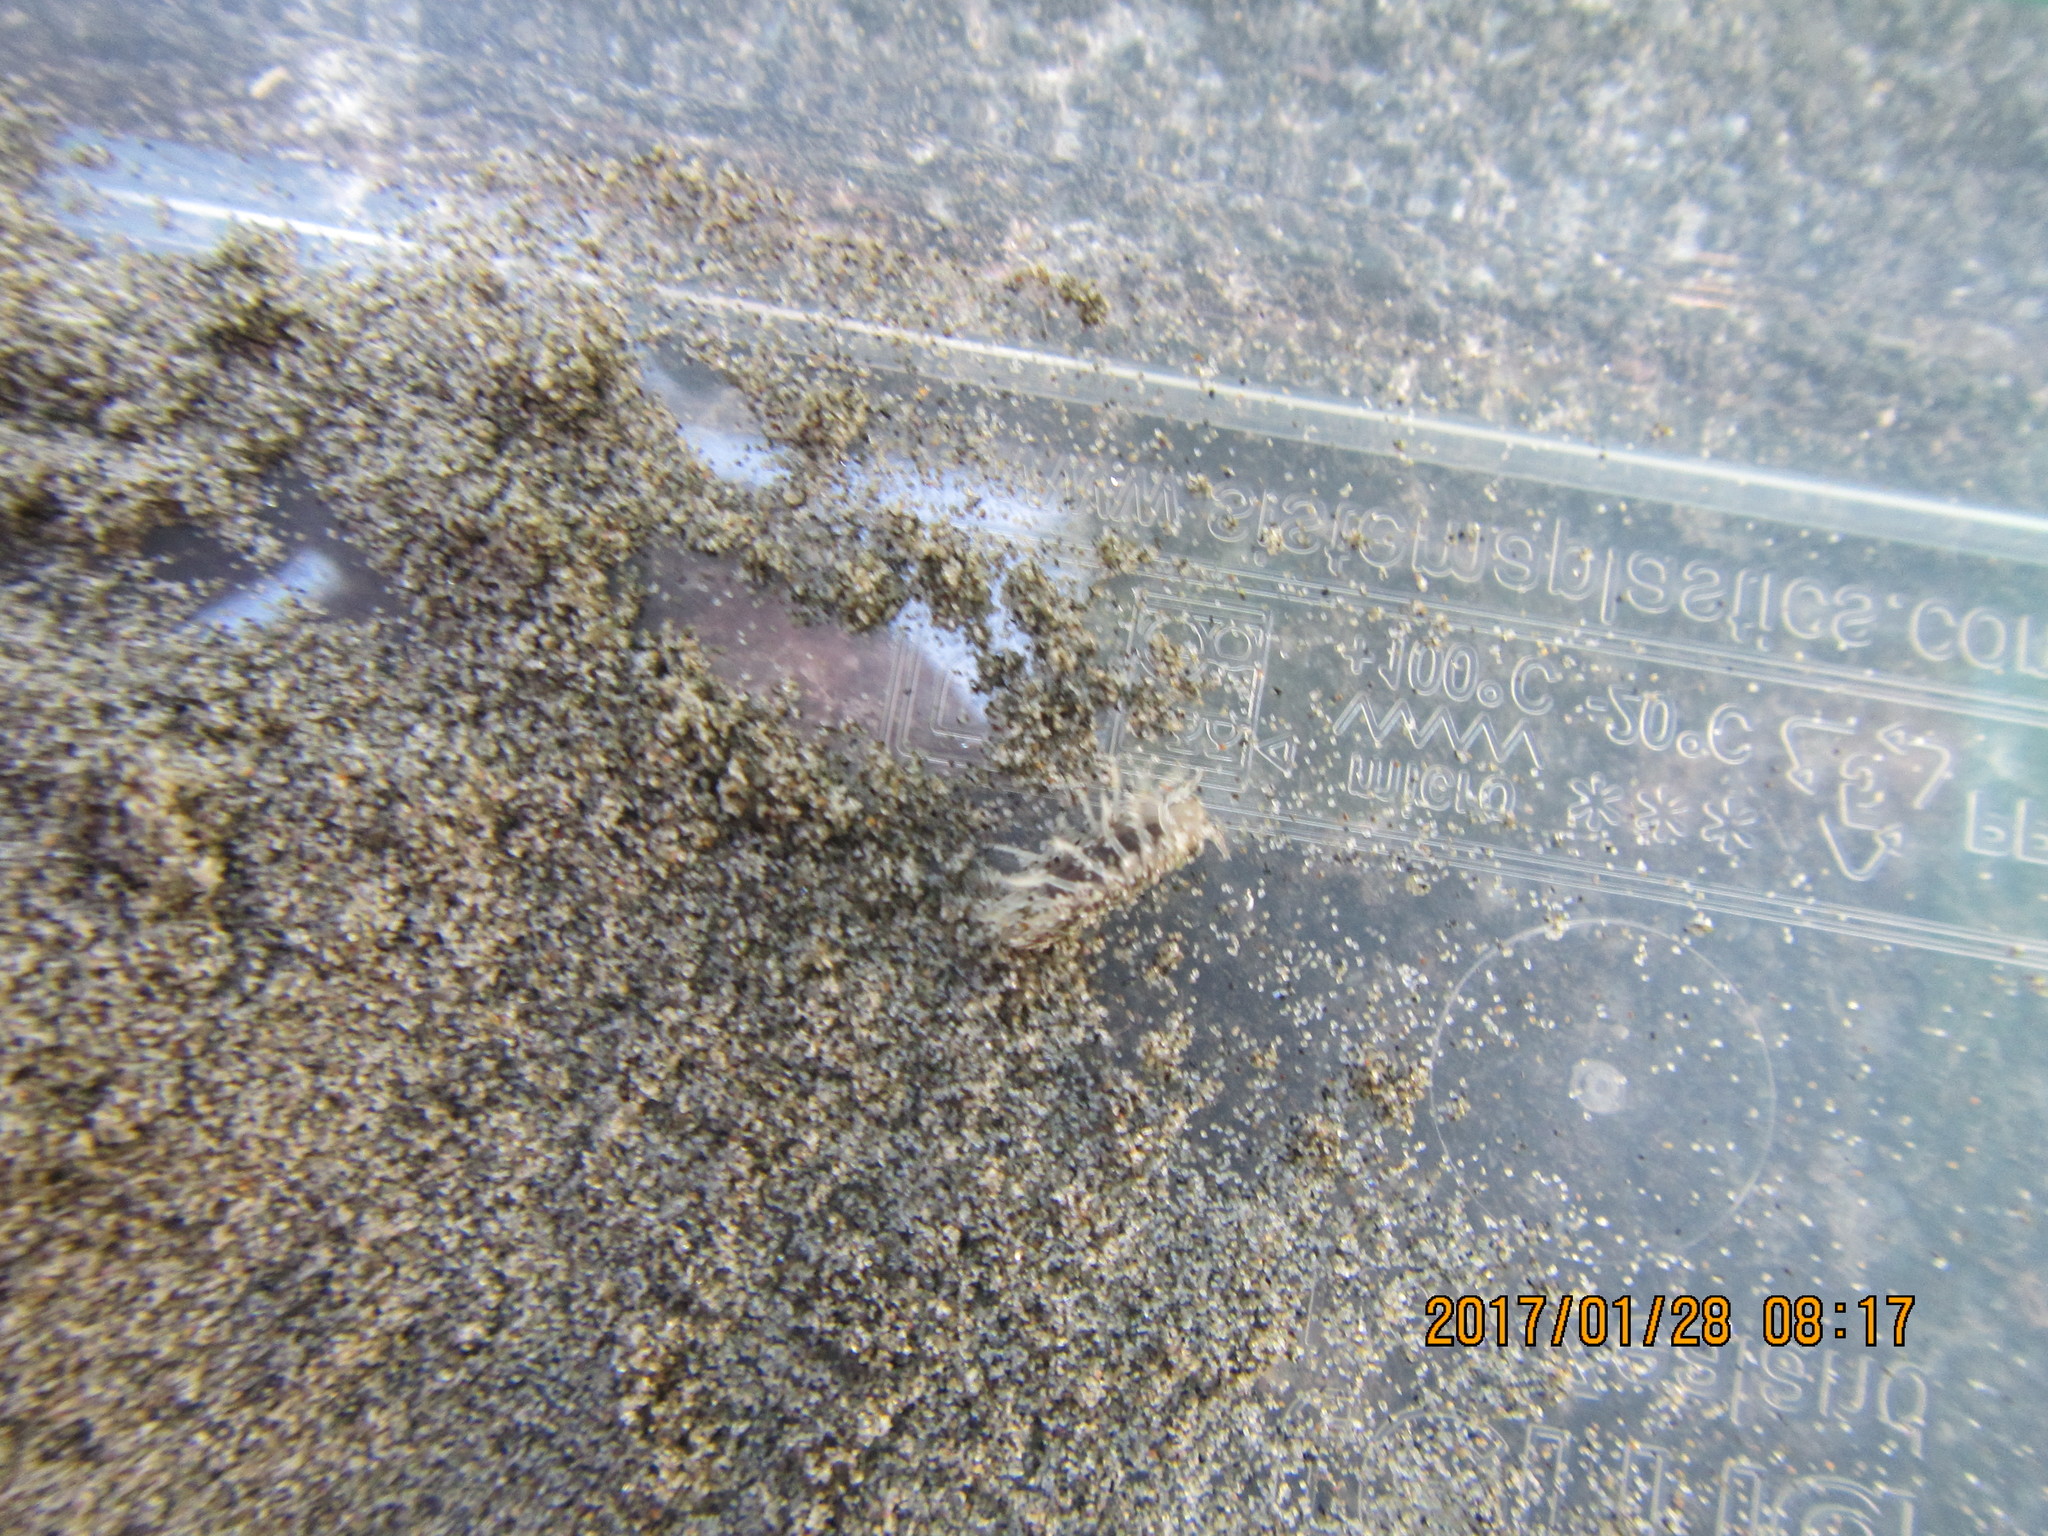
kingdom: Animalia
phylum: Arthropoda
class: Malacostraca
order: Isopoda
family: Tylidae
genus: Tylos
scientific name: Tylos neozelanicus
